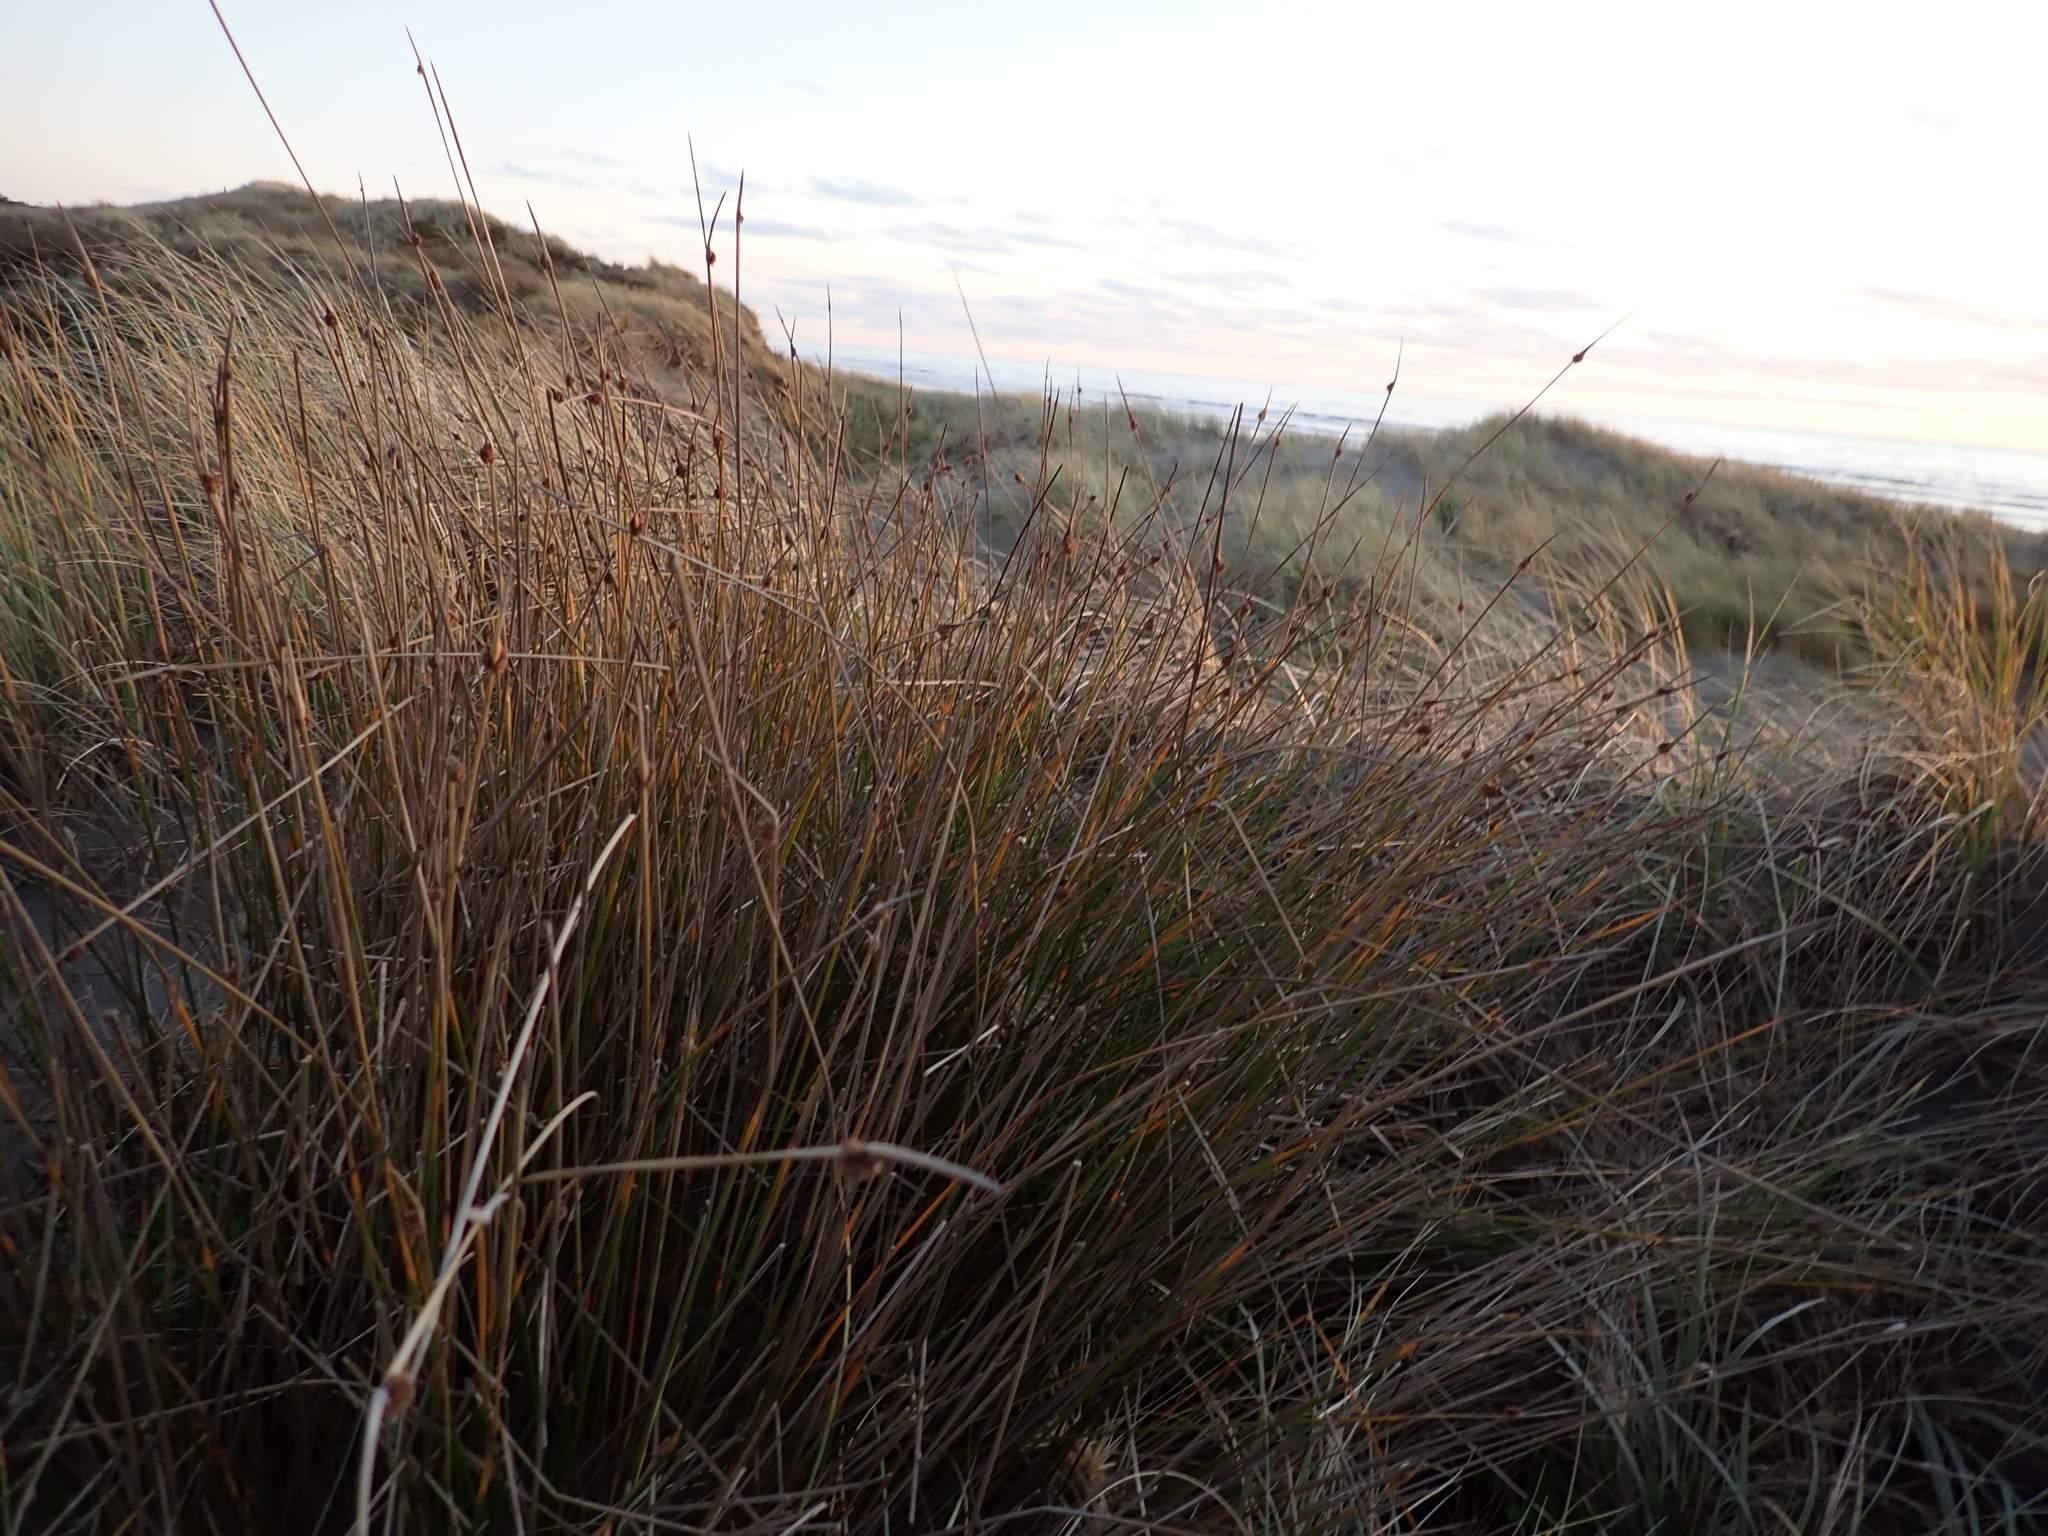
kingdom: Plantae
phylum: Tracheophyta
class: Liliopsida
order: Poales
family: Cyperaceae
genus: Ficinia
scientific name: Ficinia nodosa
